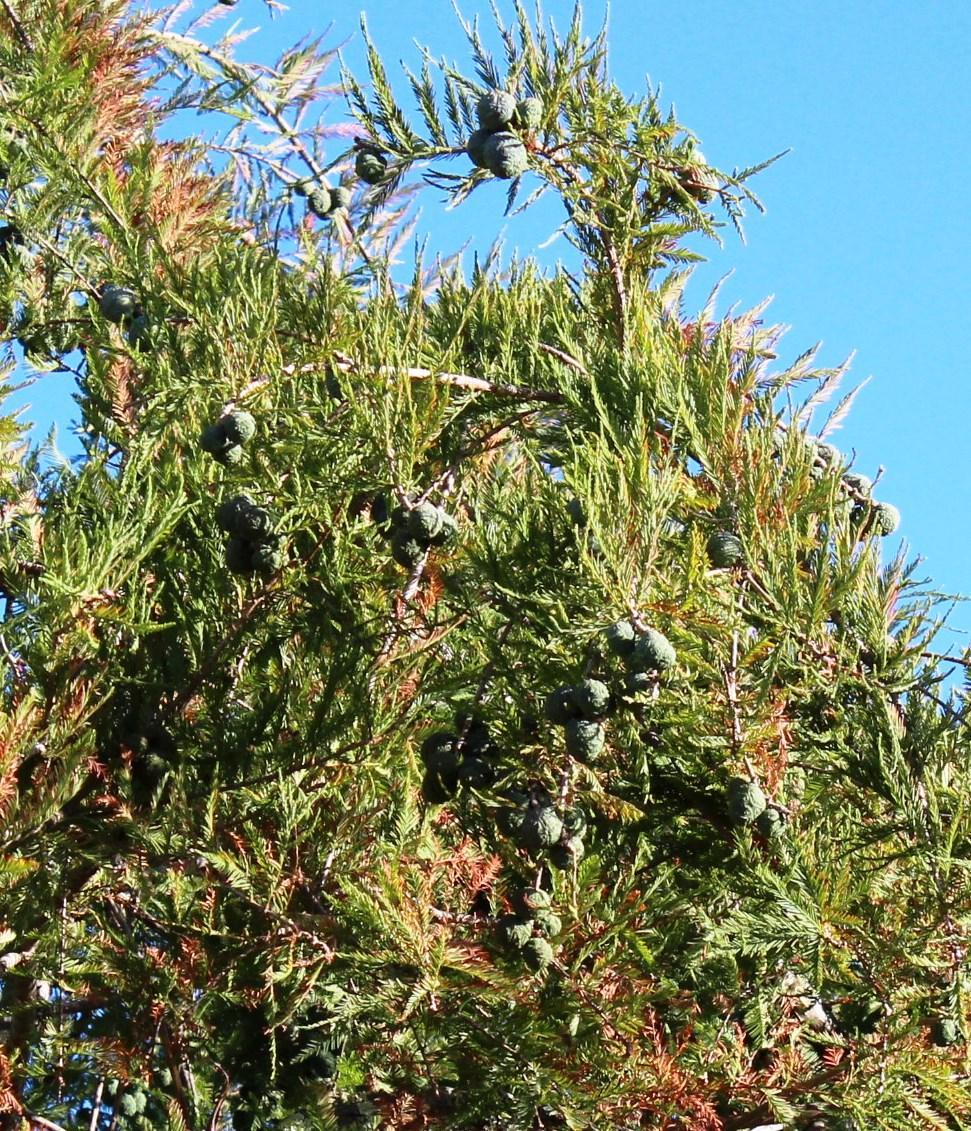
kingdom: Plantae
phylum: Tracheophyta
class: Pinopsida
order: Pinales
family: Cupressaceae
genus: Taxodium
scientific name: Taxodium distichum
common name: Bald cypress
